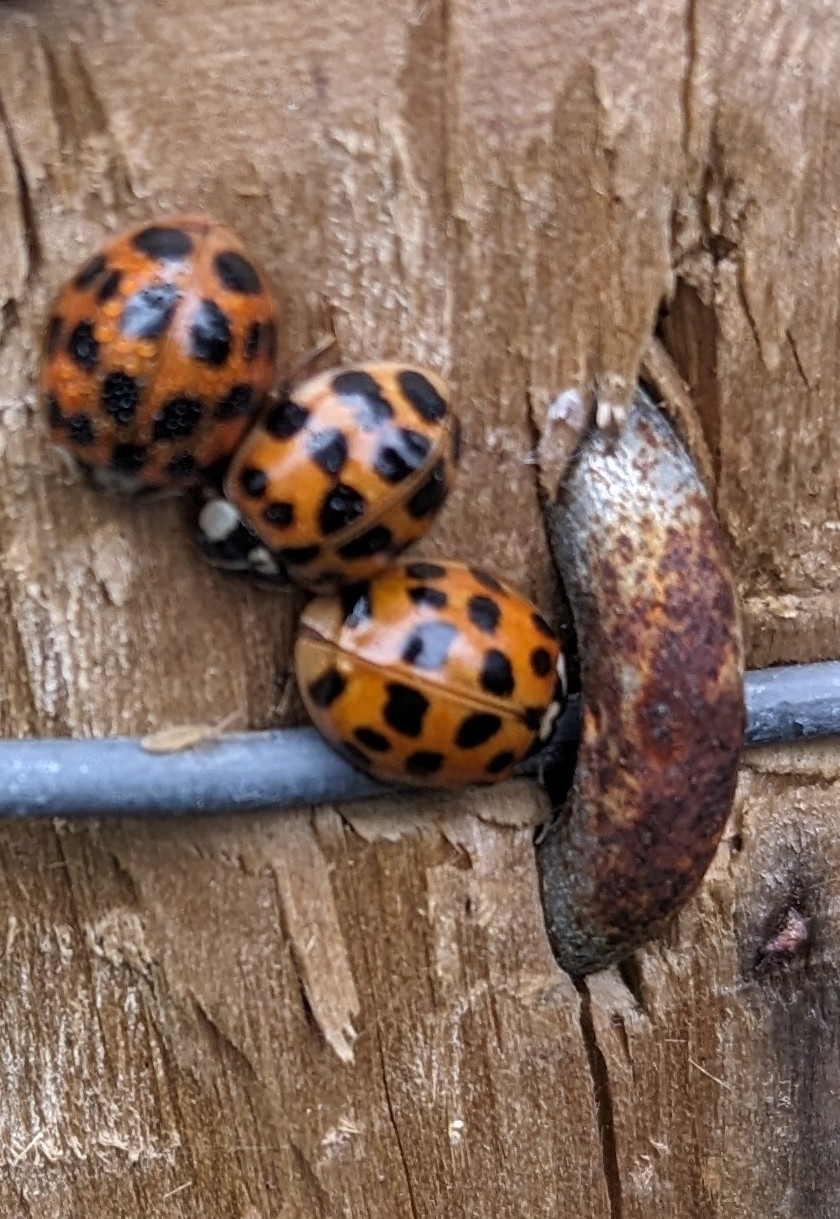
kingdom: Animalia
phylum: Arthropoda
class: Insecta
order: Coleoptera
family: Coccinellidae
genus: Harmonia
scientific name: Harmonia axyridis
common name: Harlequin ladybird
